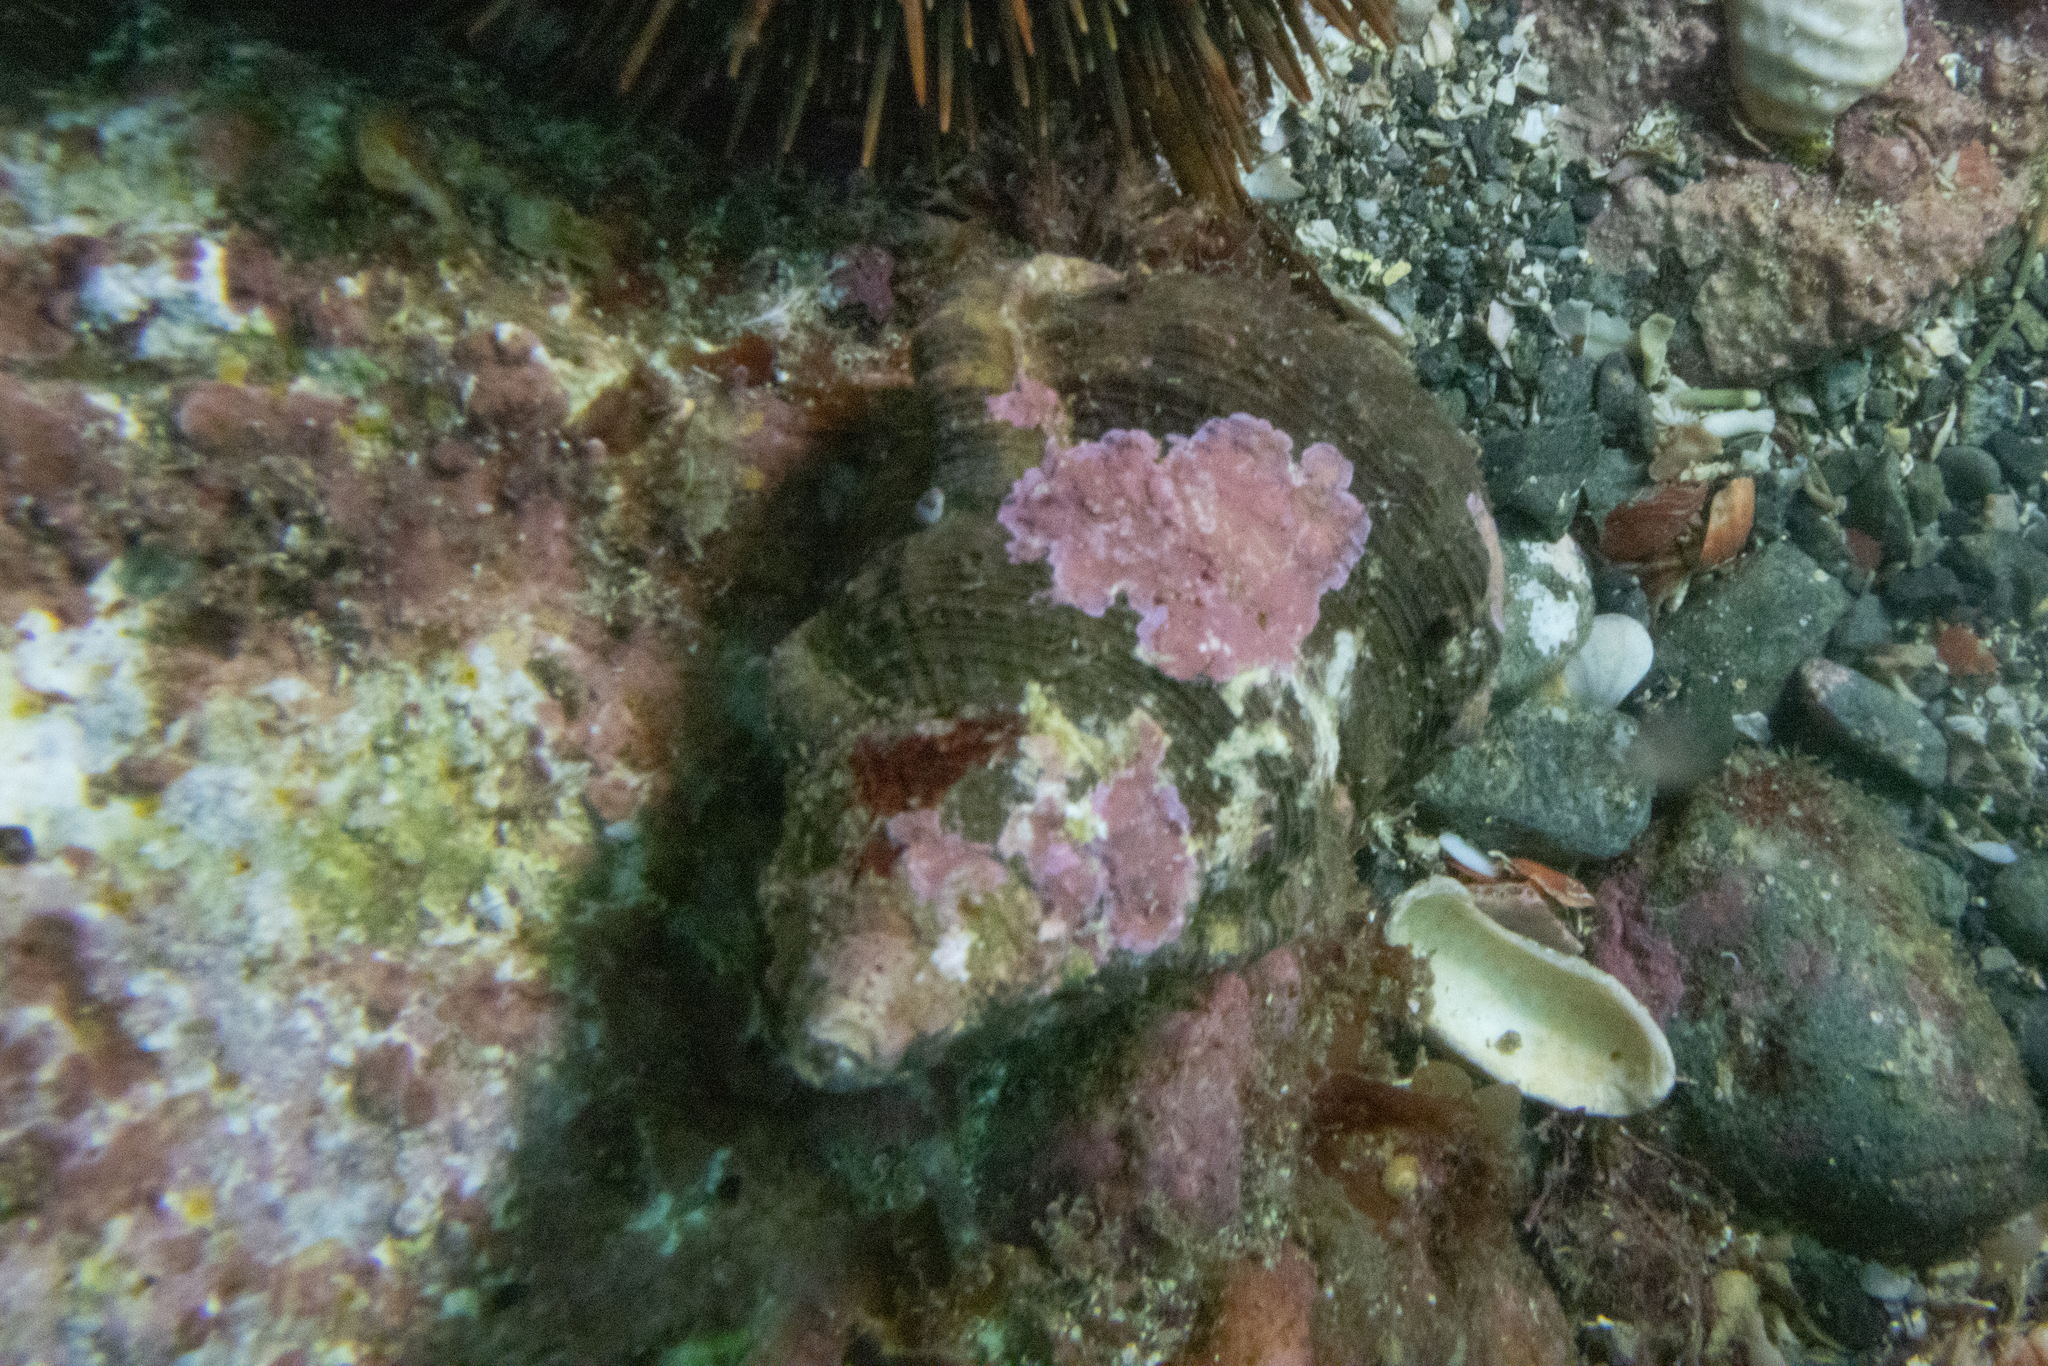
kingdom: Animalia
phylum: Mollusca
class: Gastropoda
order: Littorinimorpha
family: Ranellidae
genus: Ranella
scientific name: Ranella australasia
